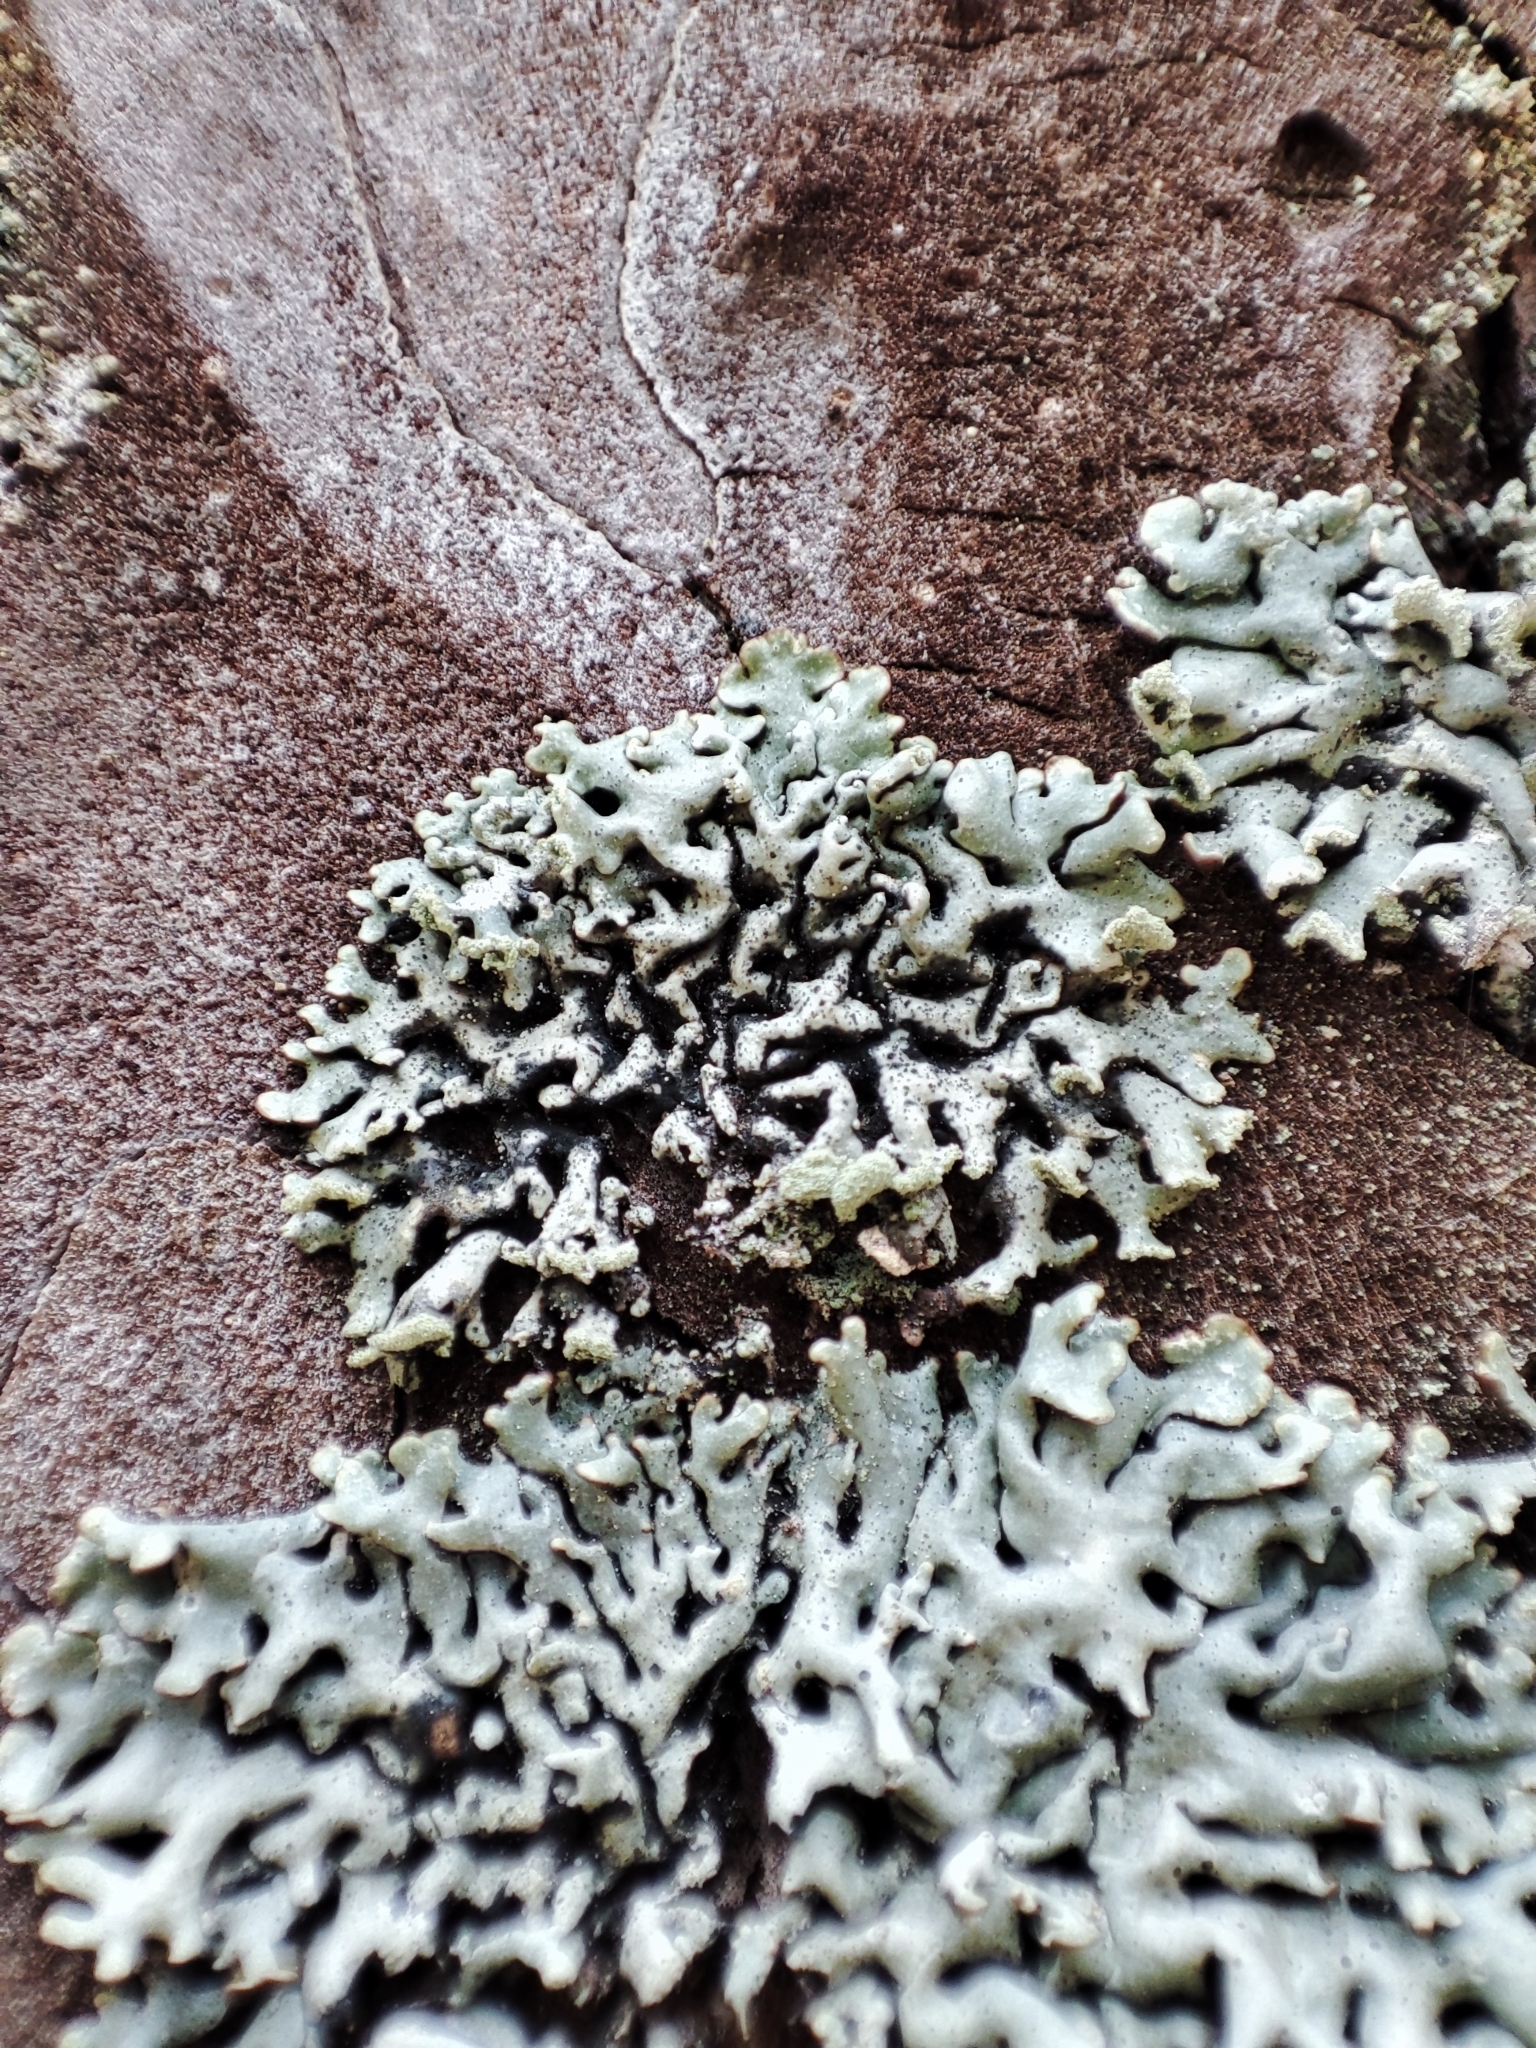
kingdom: Fungi
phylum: Ascomycota
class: Lecanoromycetes
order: Lecanorales
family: Parmeliaceae
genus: Hypogymnia
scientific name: Hypogymnia physodes
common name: Dark crottle
